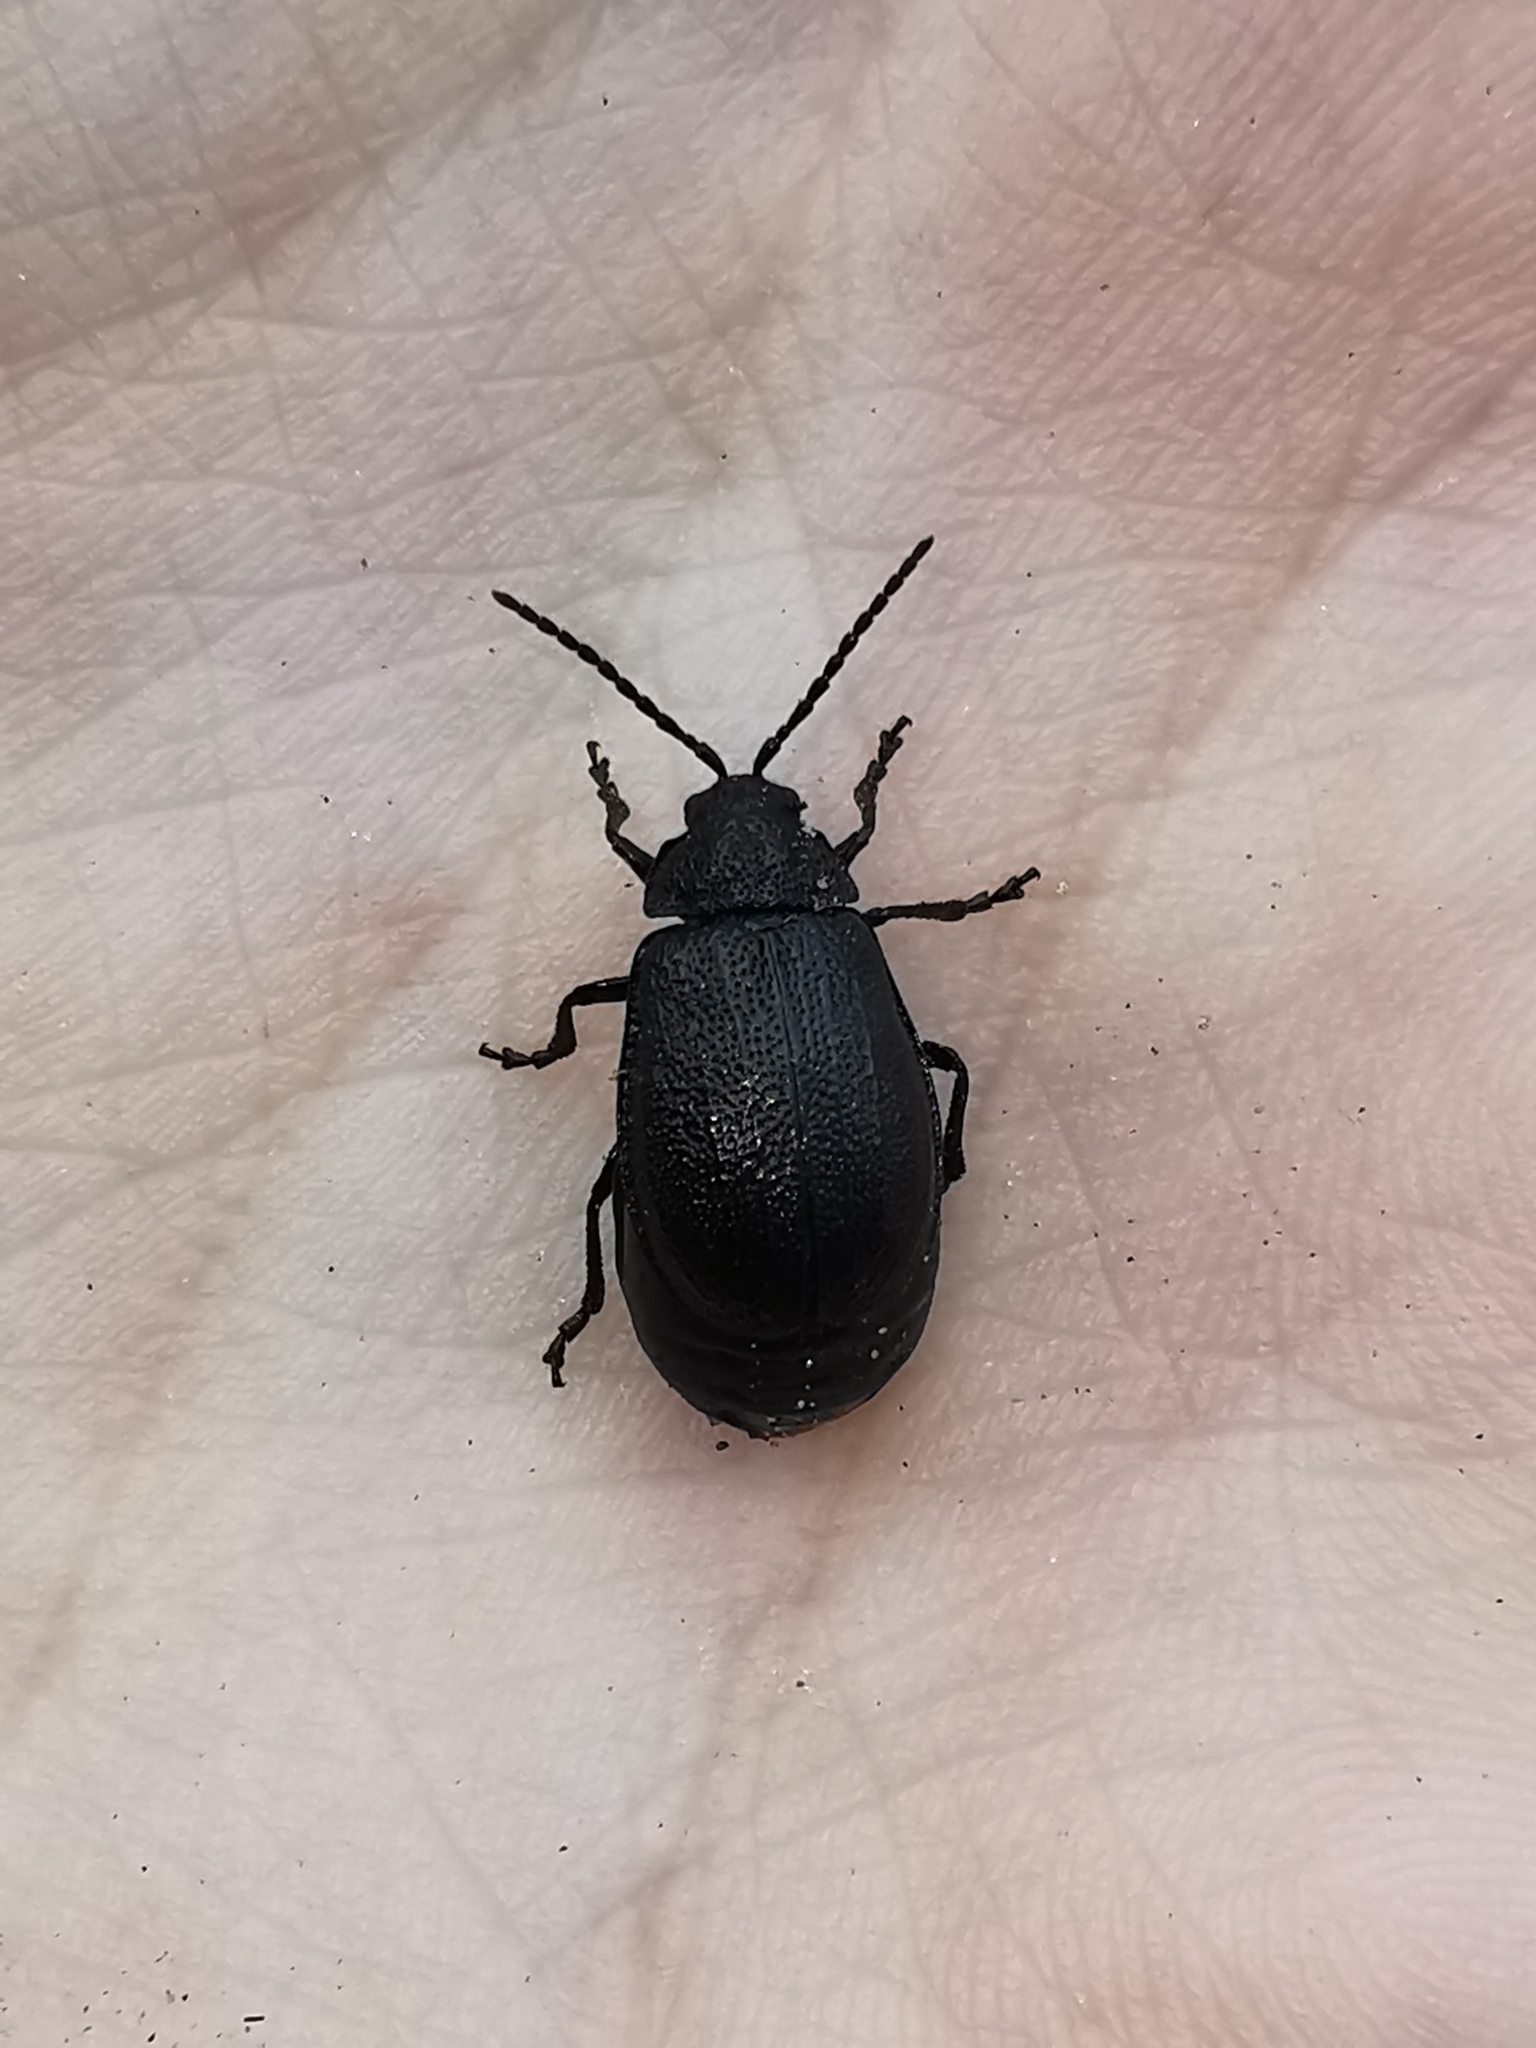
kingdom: Animalia
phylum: Arthropoda
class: Insecta
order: Coleoptera
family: Chrysomelidae
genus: Galeruca
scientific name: Galeruca tanaceti
